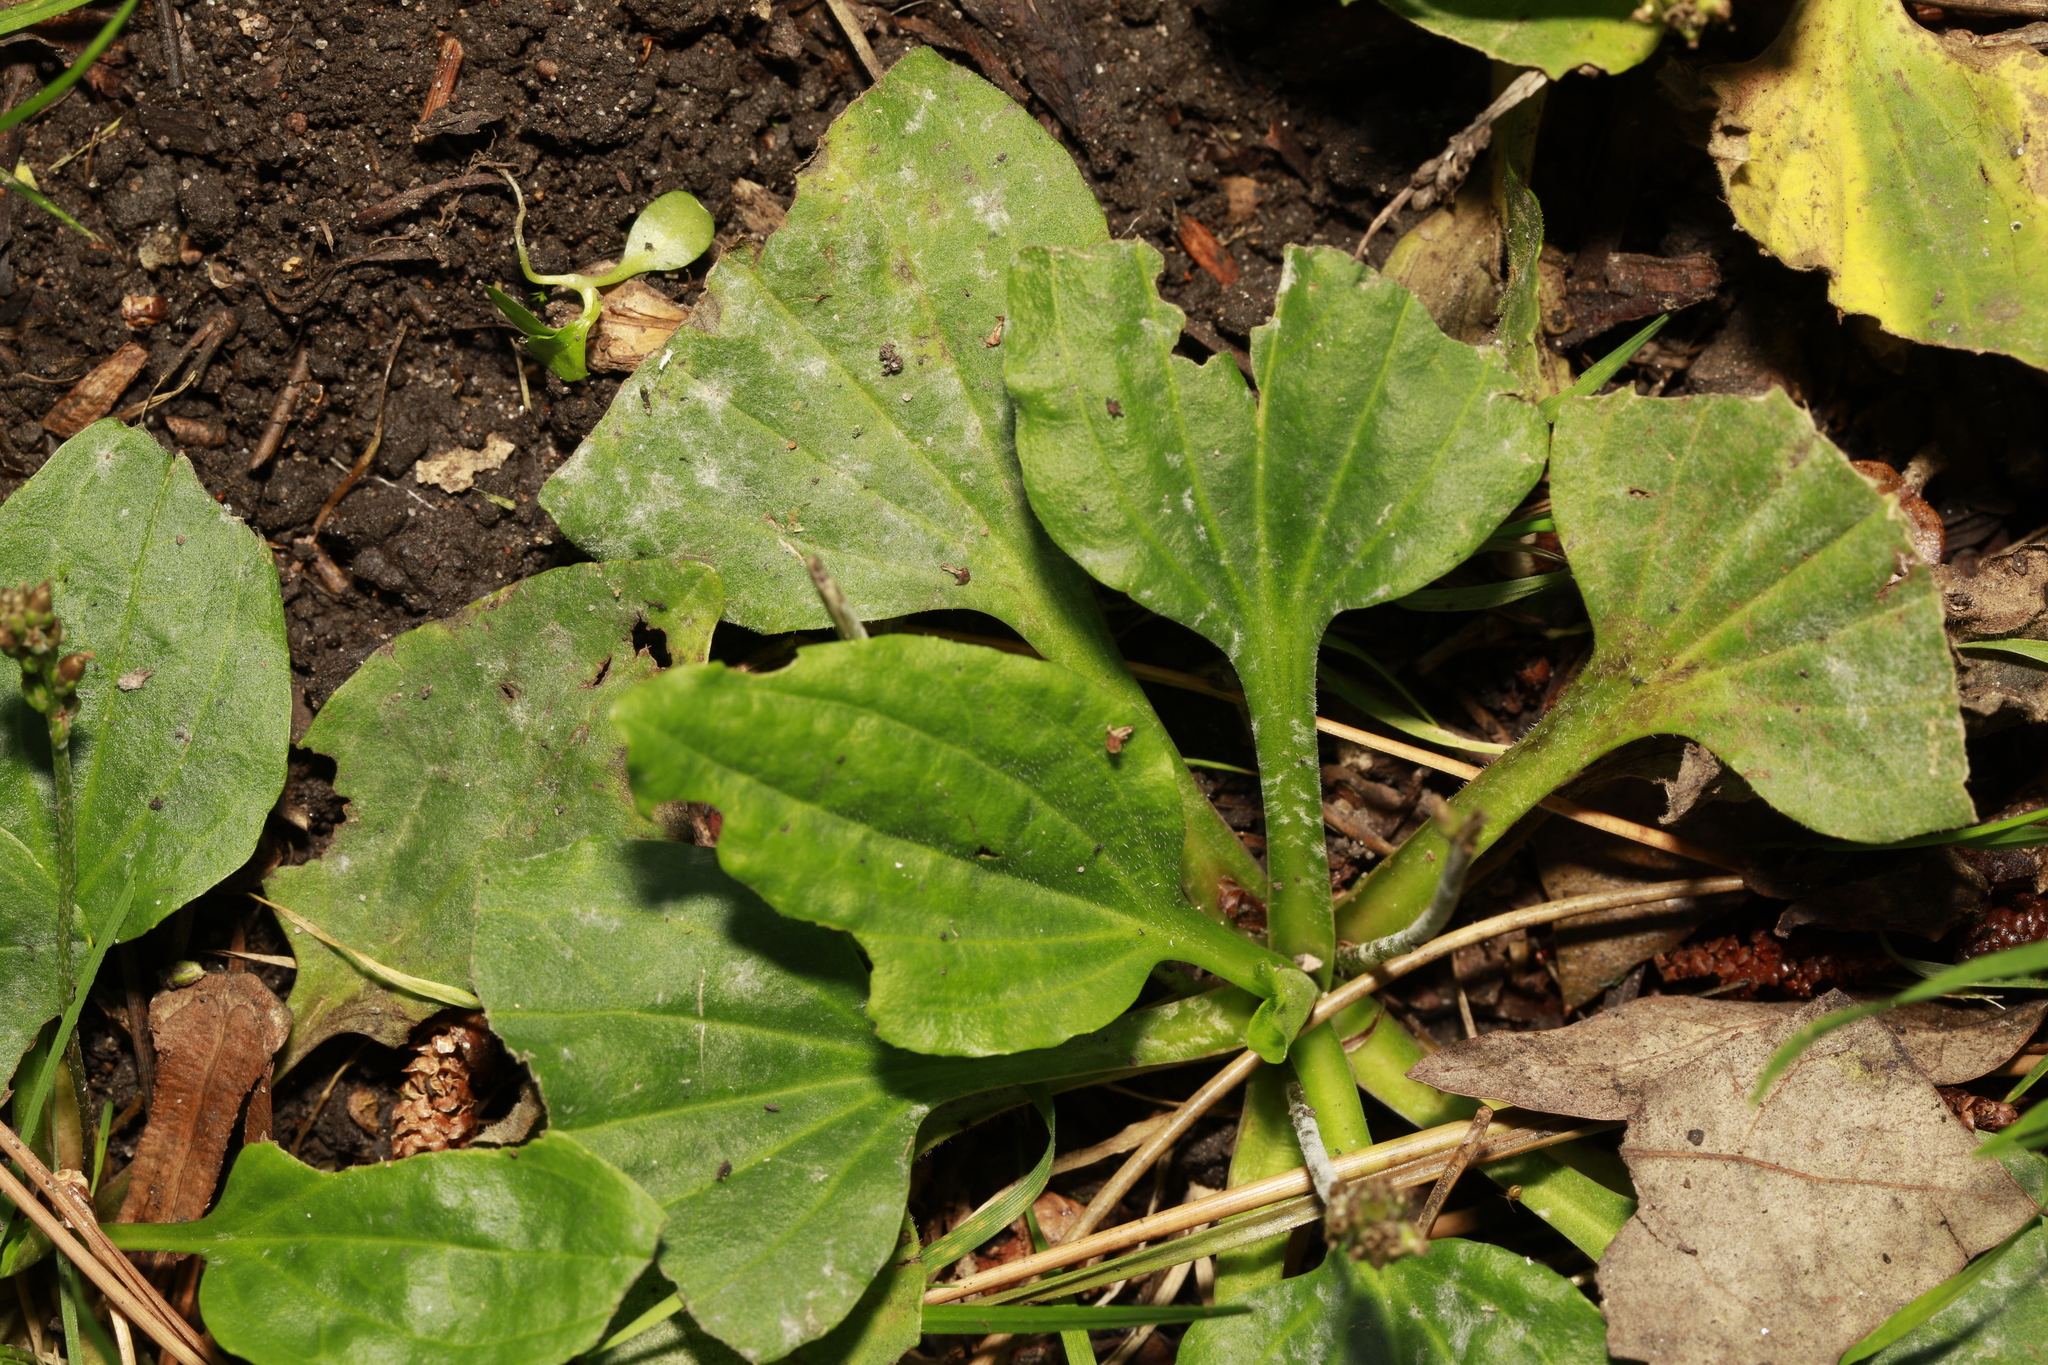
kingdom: Fungi
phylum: Ascomycota
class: Leotiomycetes
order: Helotiales
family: Erysiphaceae
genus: Golovinomyces
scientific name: Golovinomyces sordidus
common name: Plantain mildew
